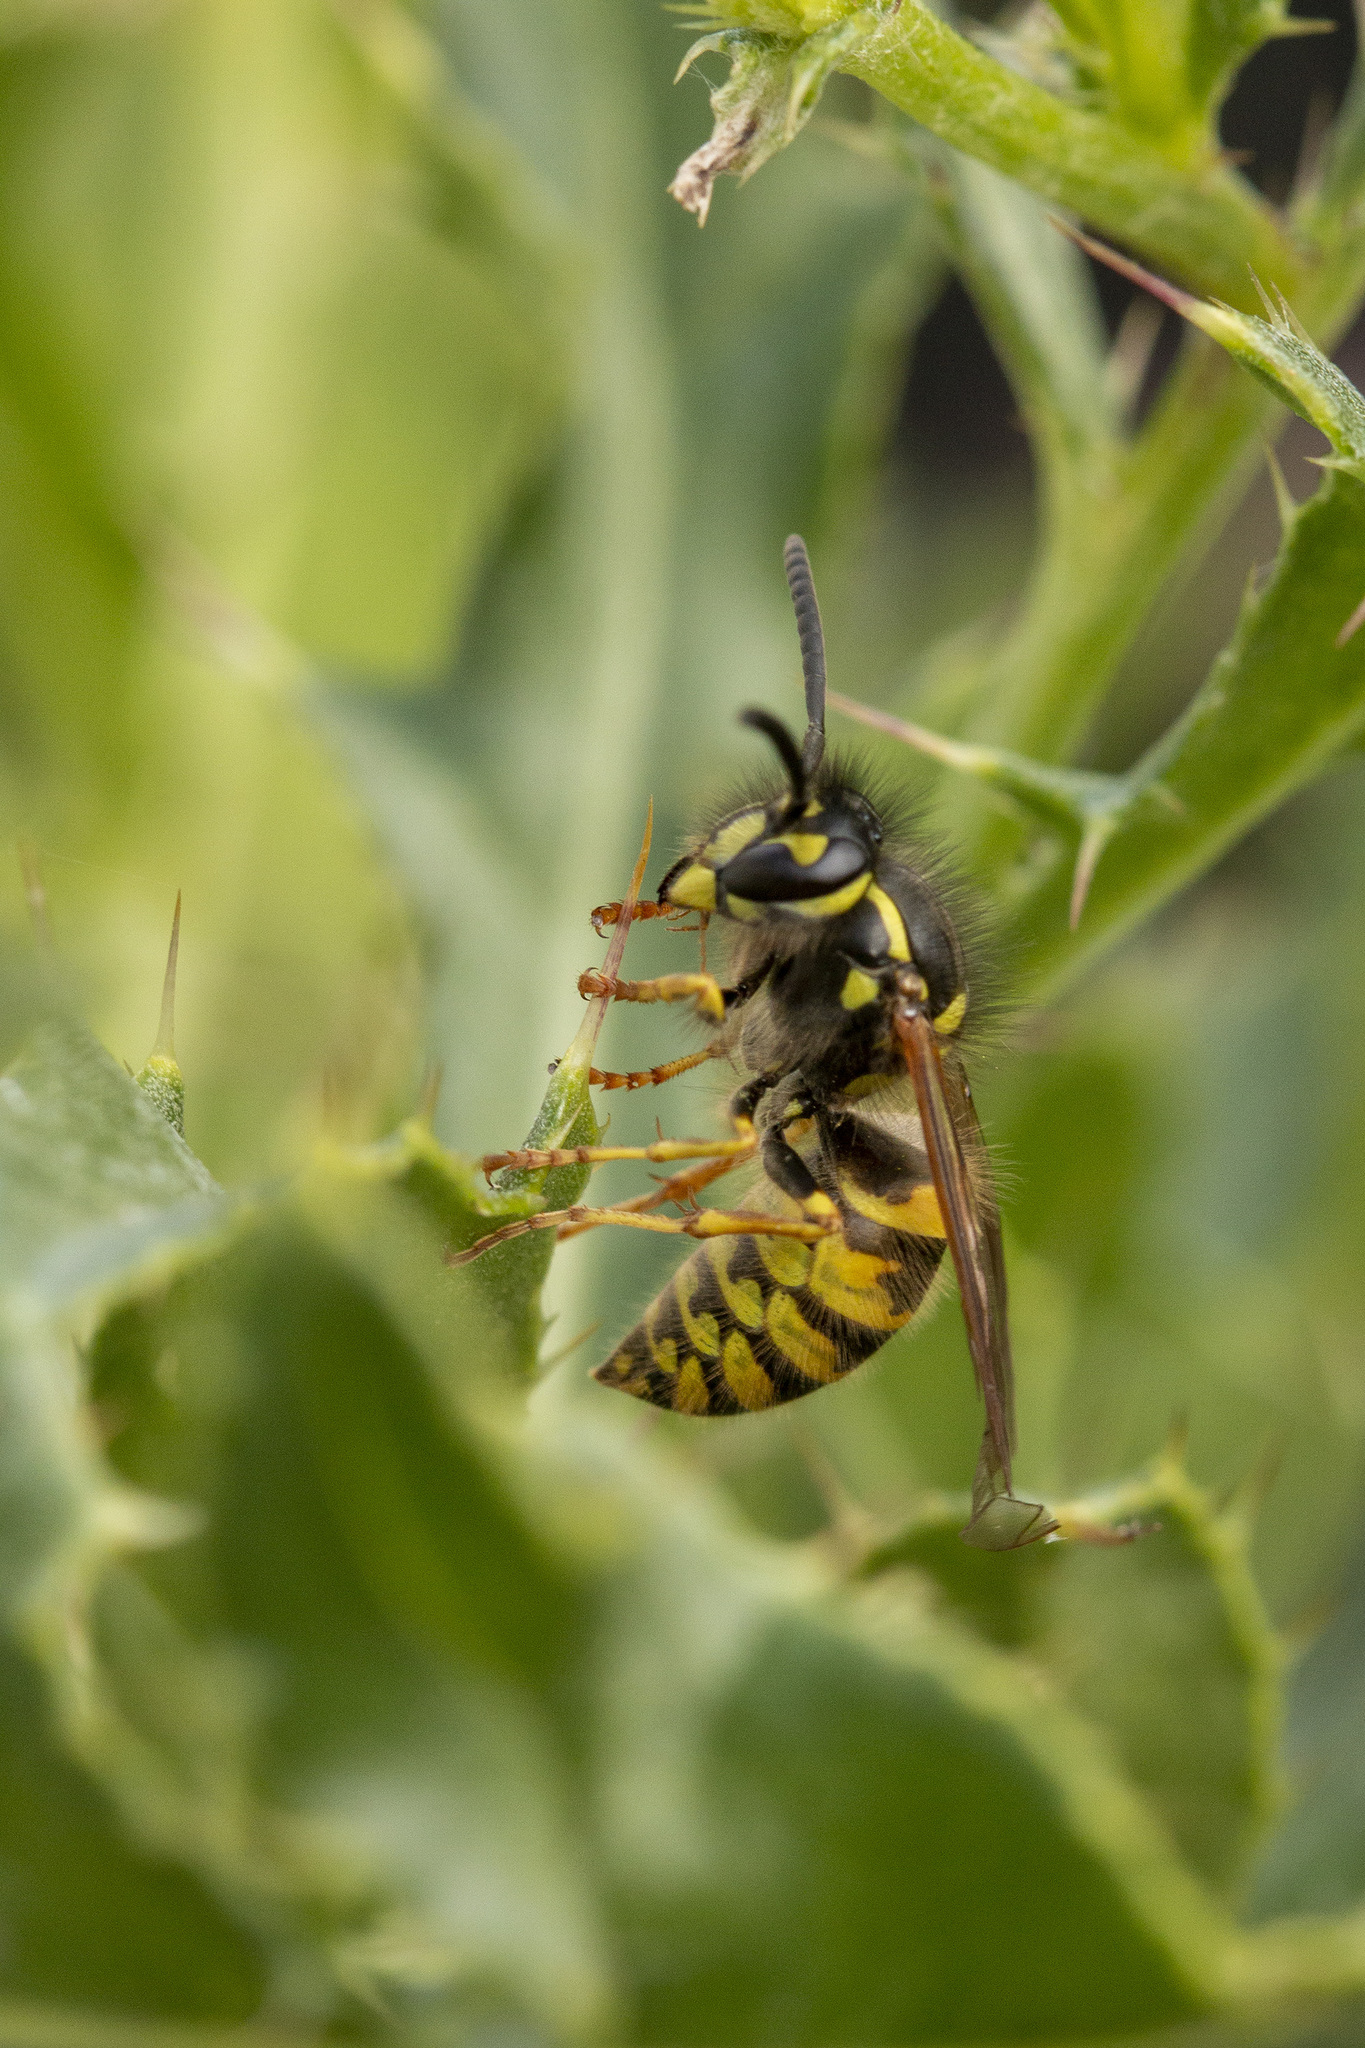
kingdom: Animalia
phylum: Arthropoda
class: Insecta
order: Hymenoptera
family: Vespidae
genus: Vespula
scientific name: Vespula vulgaris
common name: Common wasp
